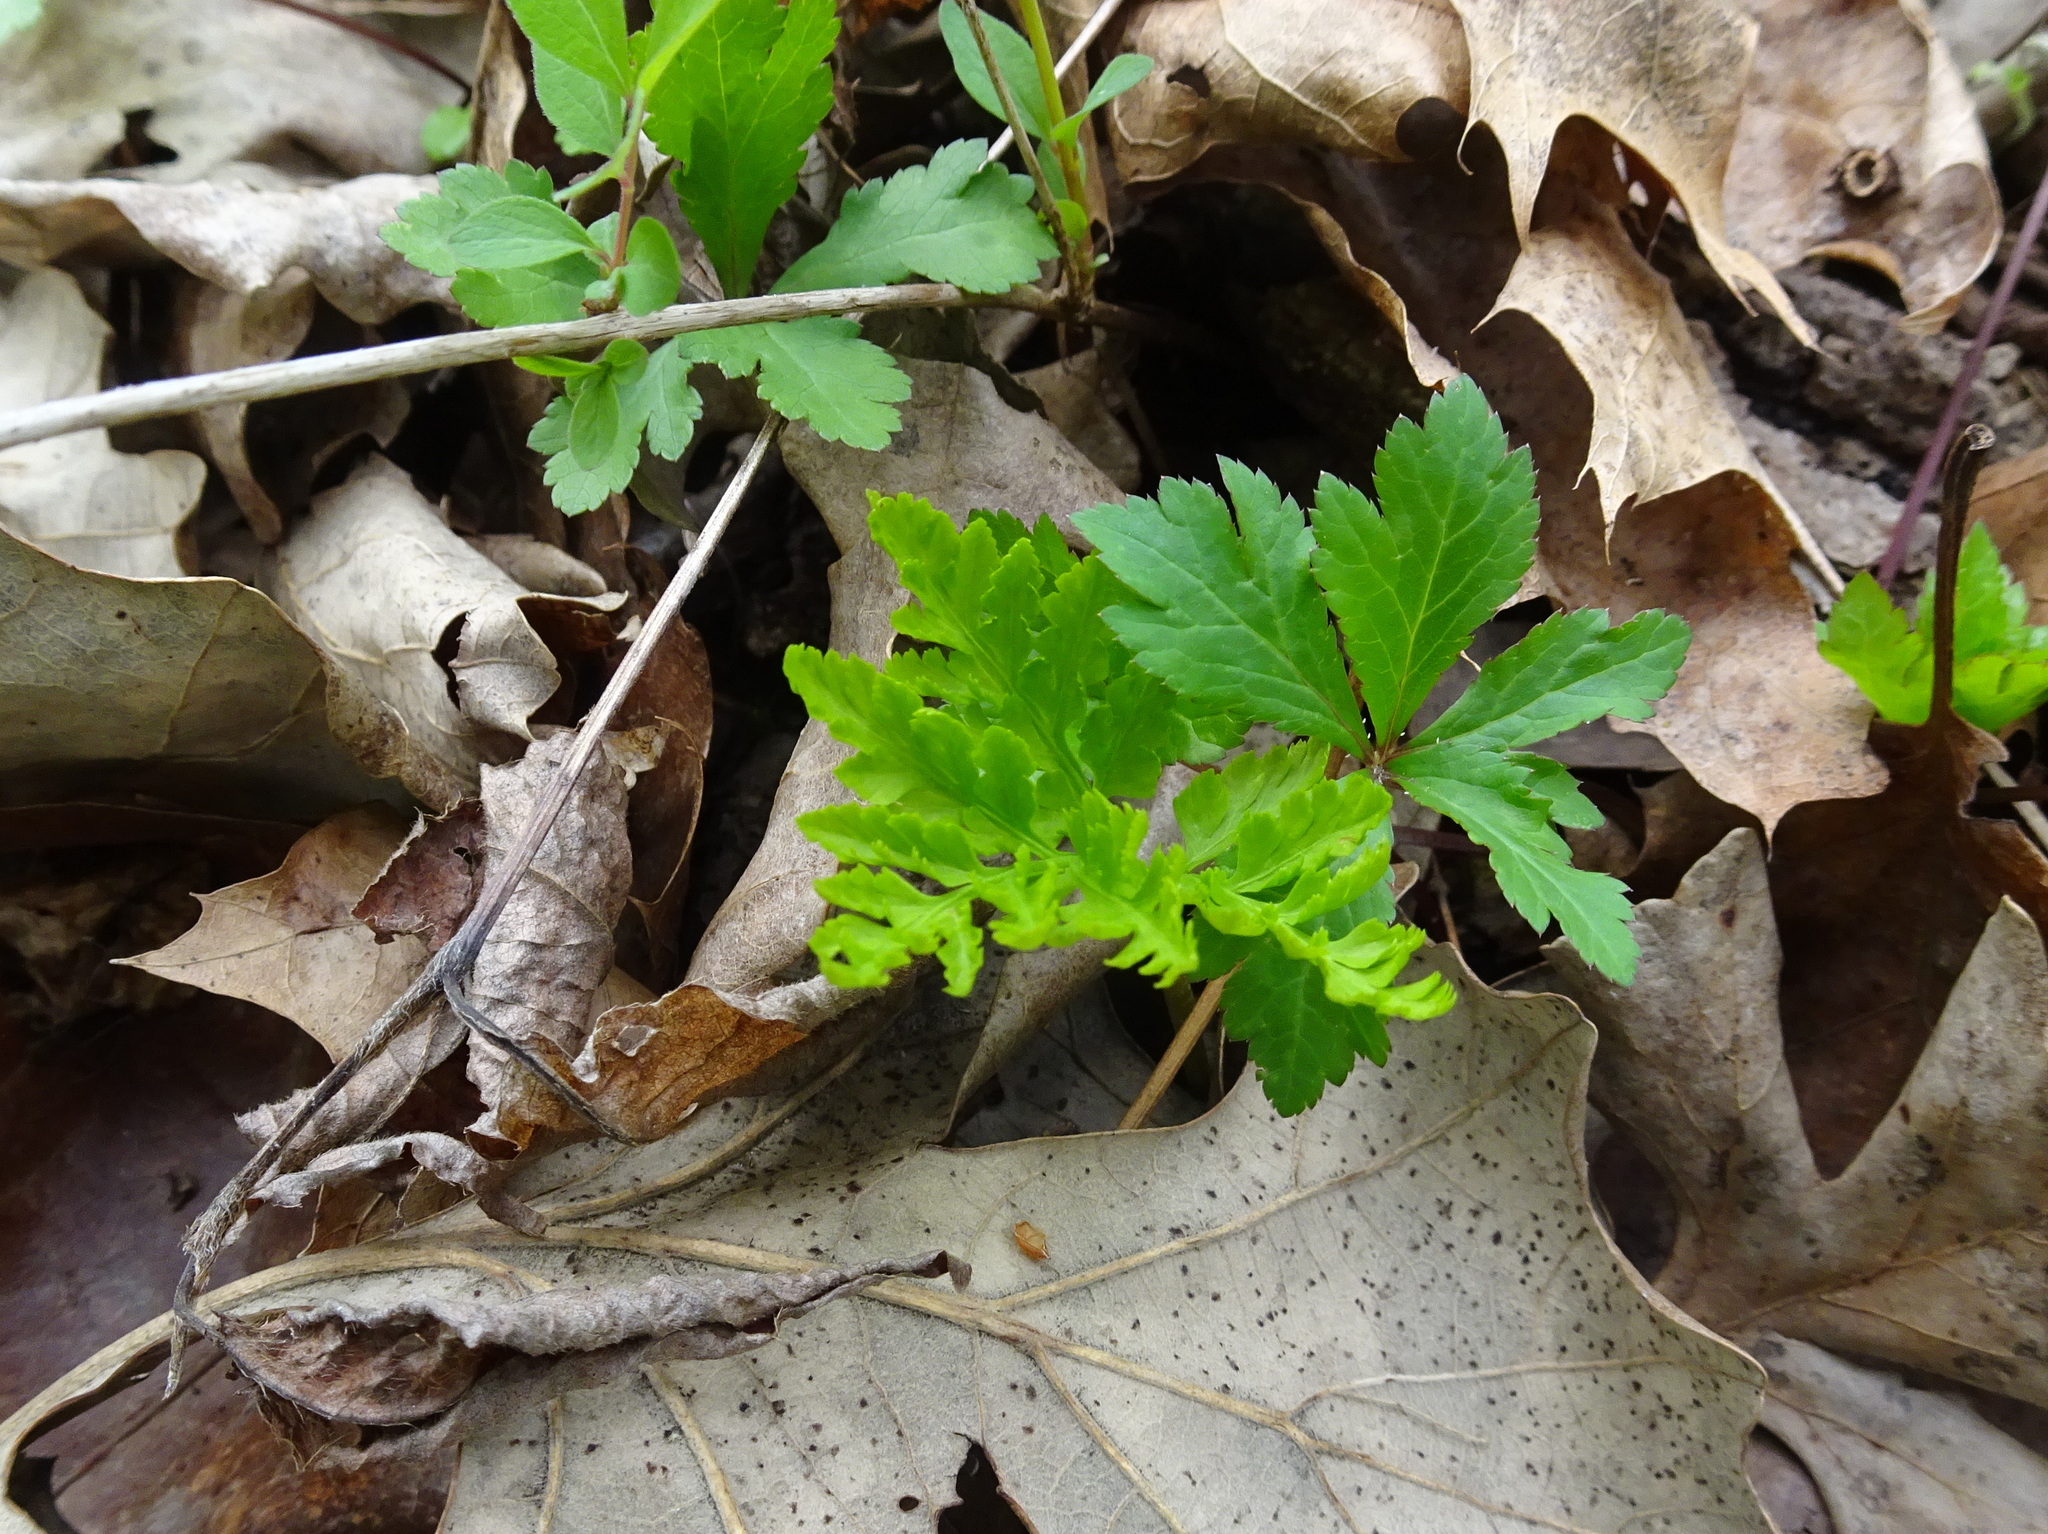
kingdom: Plantae
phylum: Tracheophyta
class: Polypodiopsida
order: Ophioglossales
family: Ophioglossaceae
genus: Botrypus
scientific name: Botrypus virginianus
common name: Common grapefern
